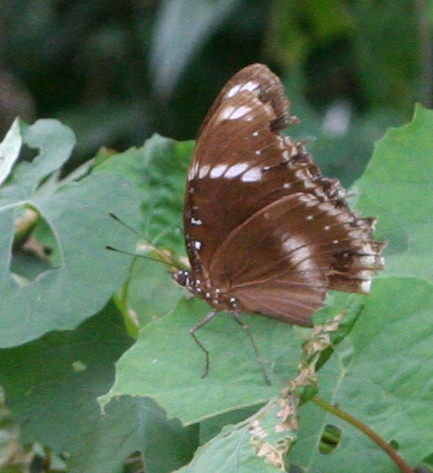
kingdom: Animalia
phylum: Arthropoda
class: Insecta
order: Lepidoptera
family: Nymphalidae
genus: Hypolimnas
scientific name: Hypolimnas bolina
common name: Great eggfly
